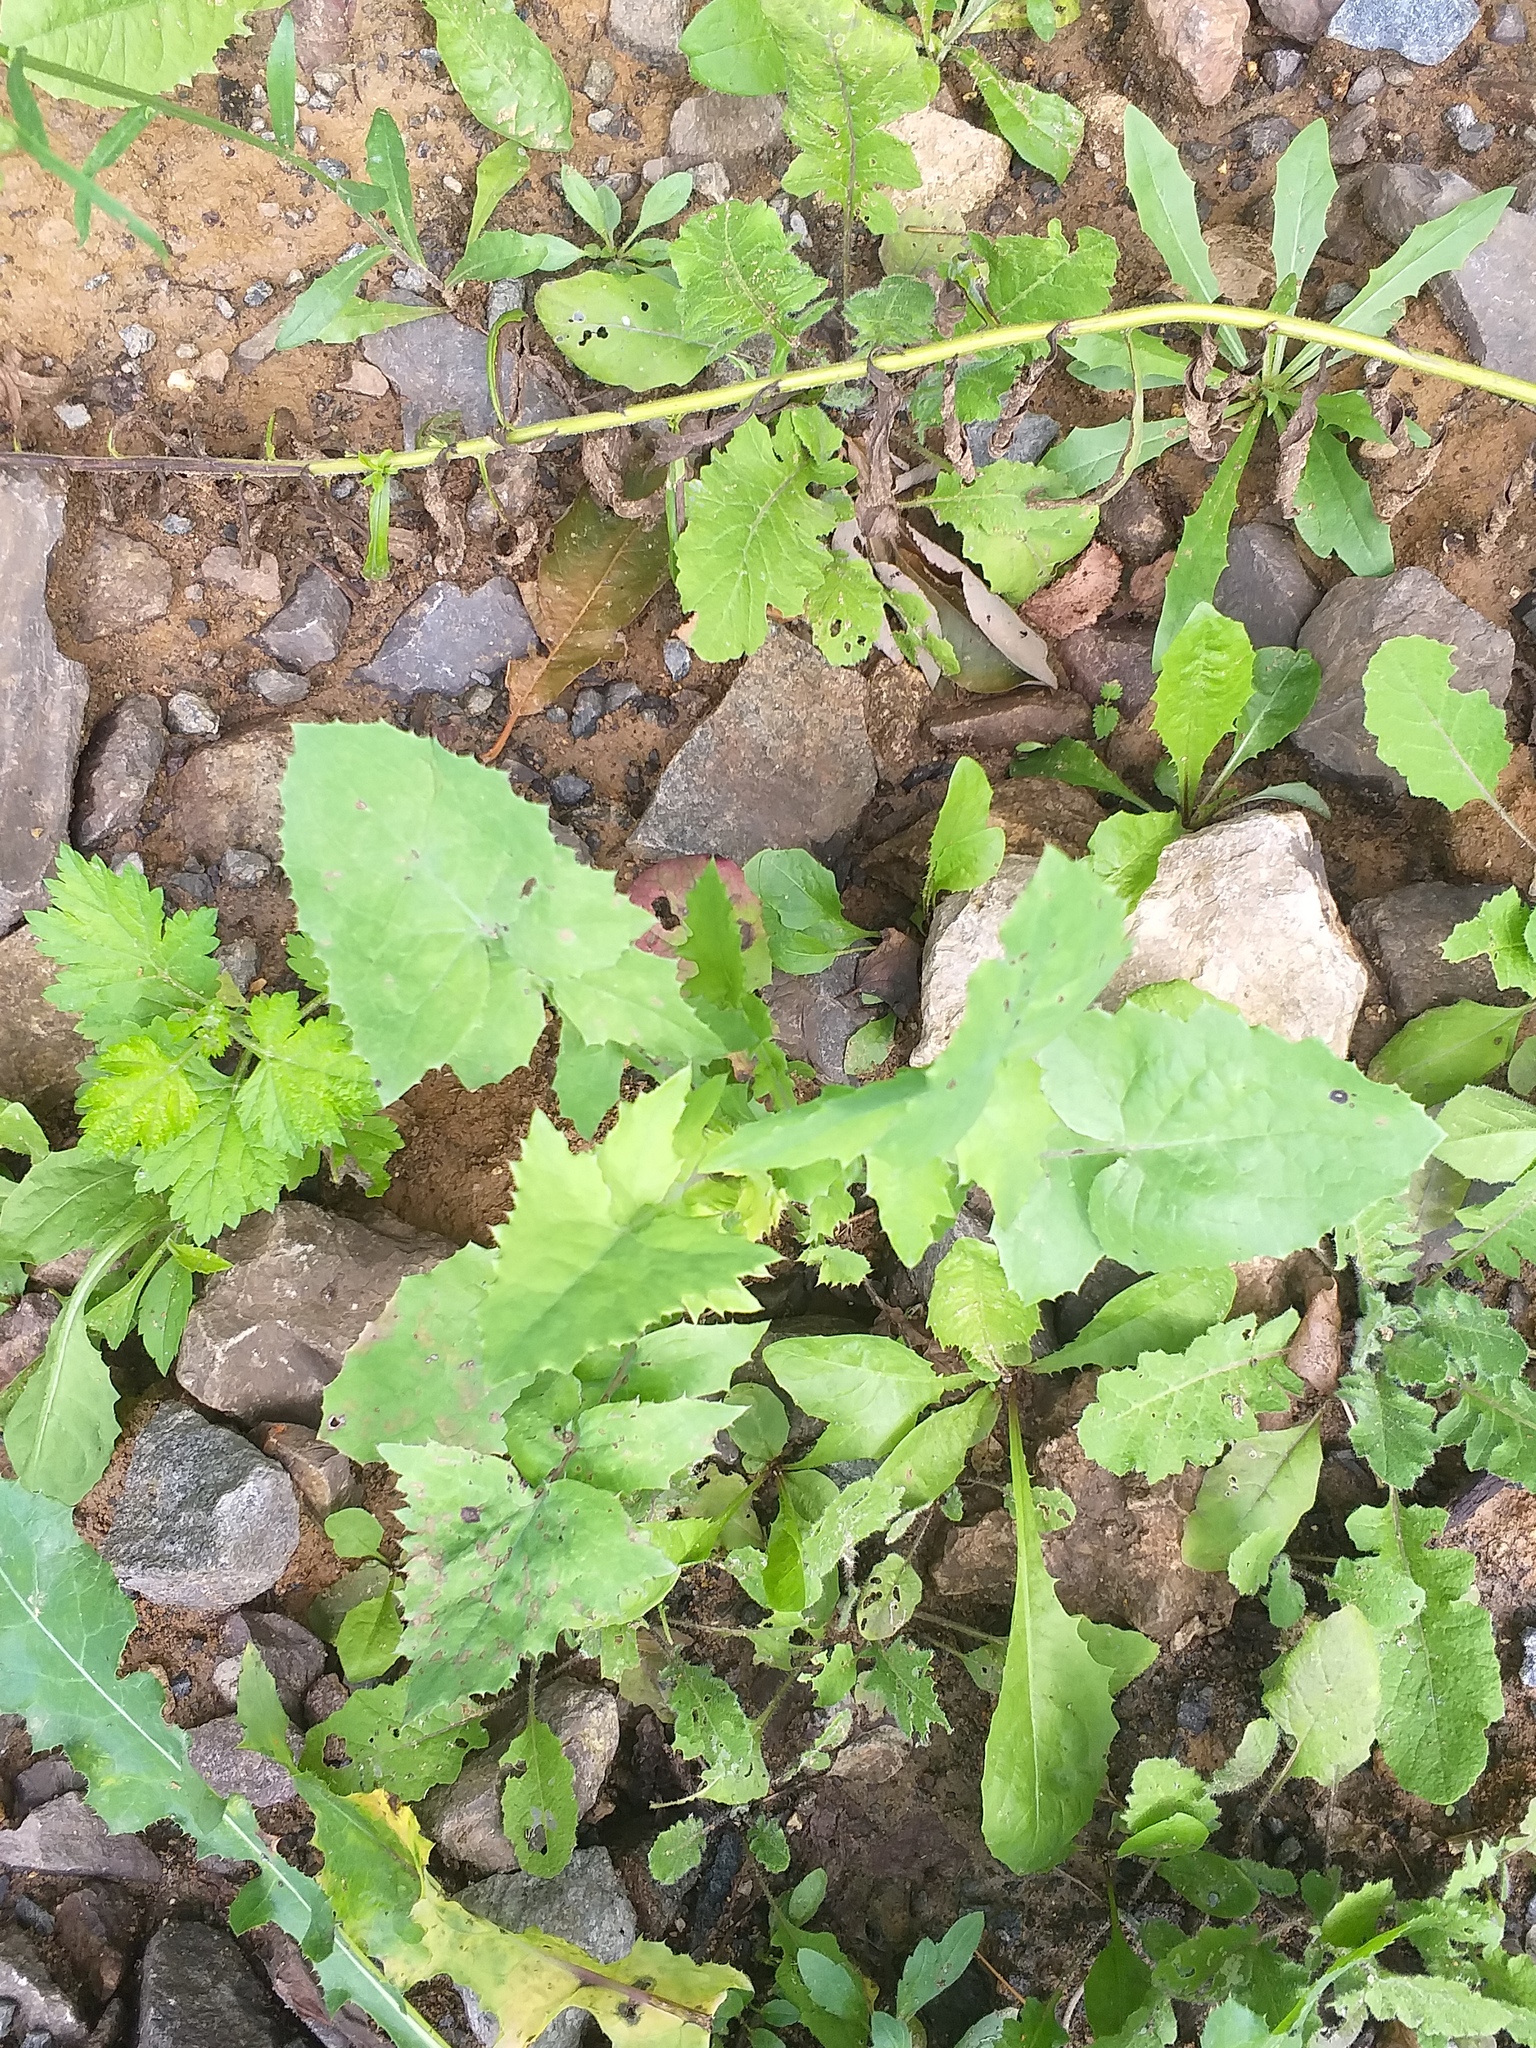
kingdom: Plantae
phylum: Tracheophyta
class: Magnoliopsida
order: Asterales
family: Asteraceae
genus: Sonchus
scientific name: Sonchus oleraceus
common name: Common sowthistle
